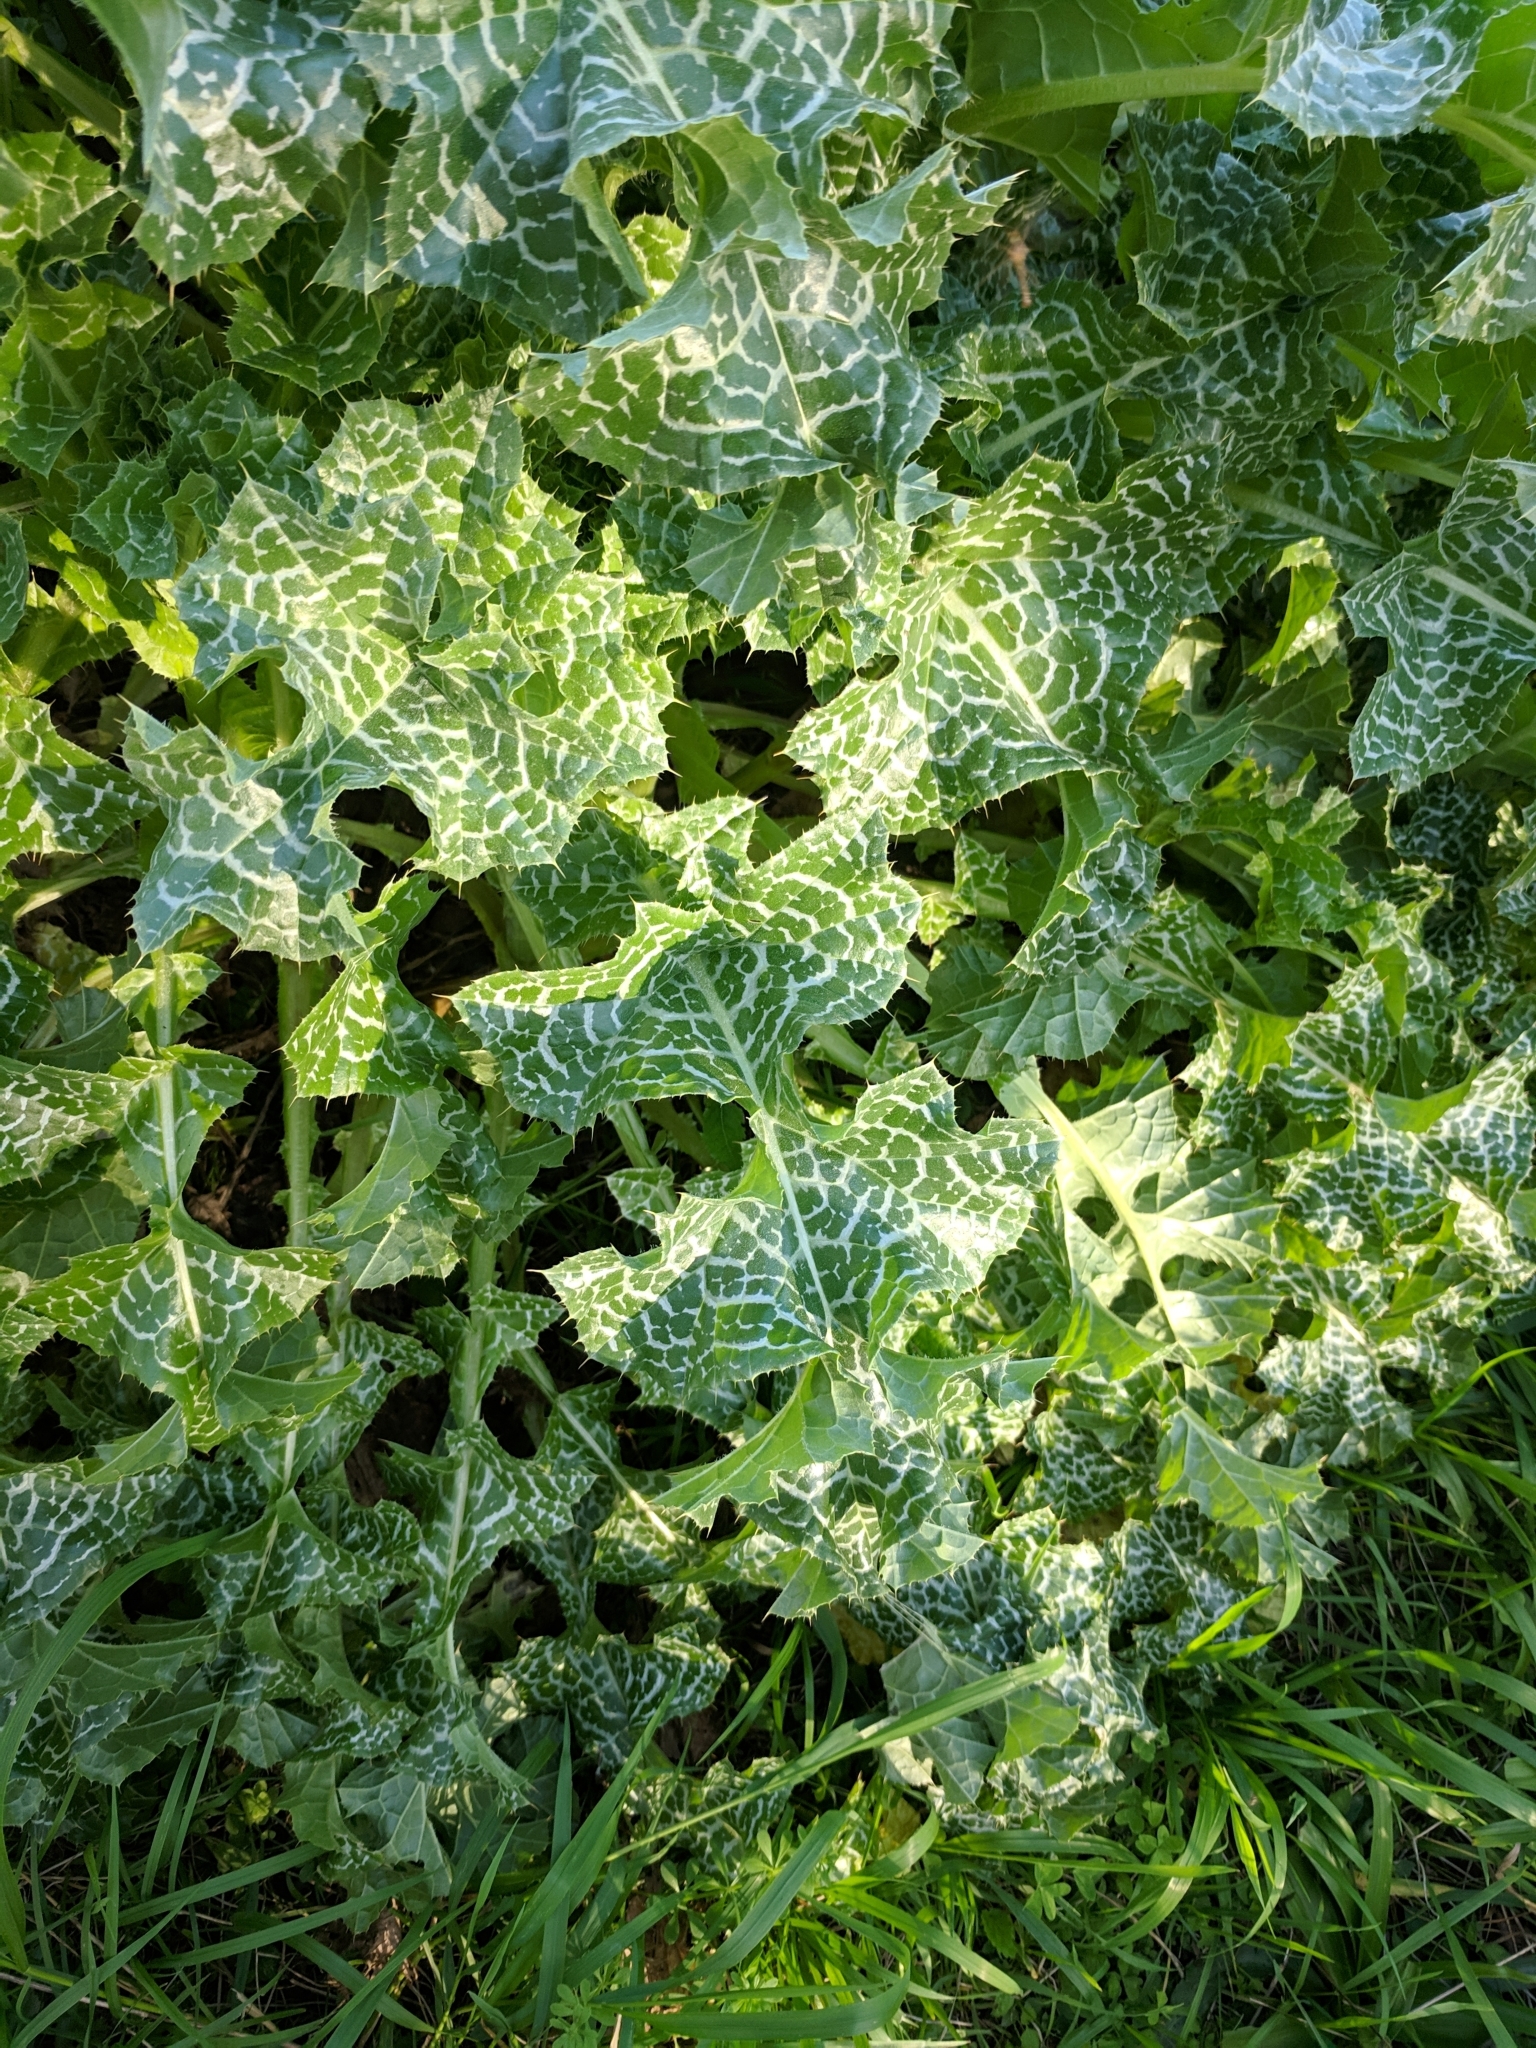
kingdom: Plantae
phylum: Tracheophyta
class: Magnoliopsida
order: Asterales
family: Asteraceae
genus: Silybum
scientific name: Silybum marianum
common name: Milk thistle
